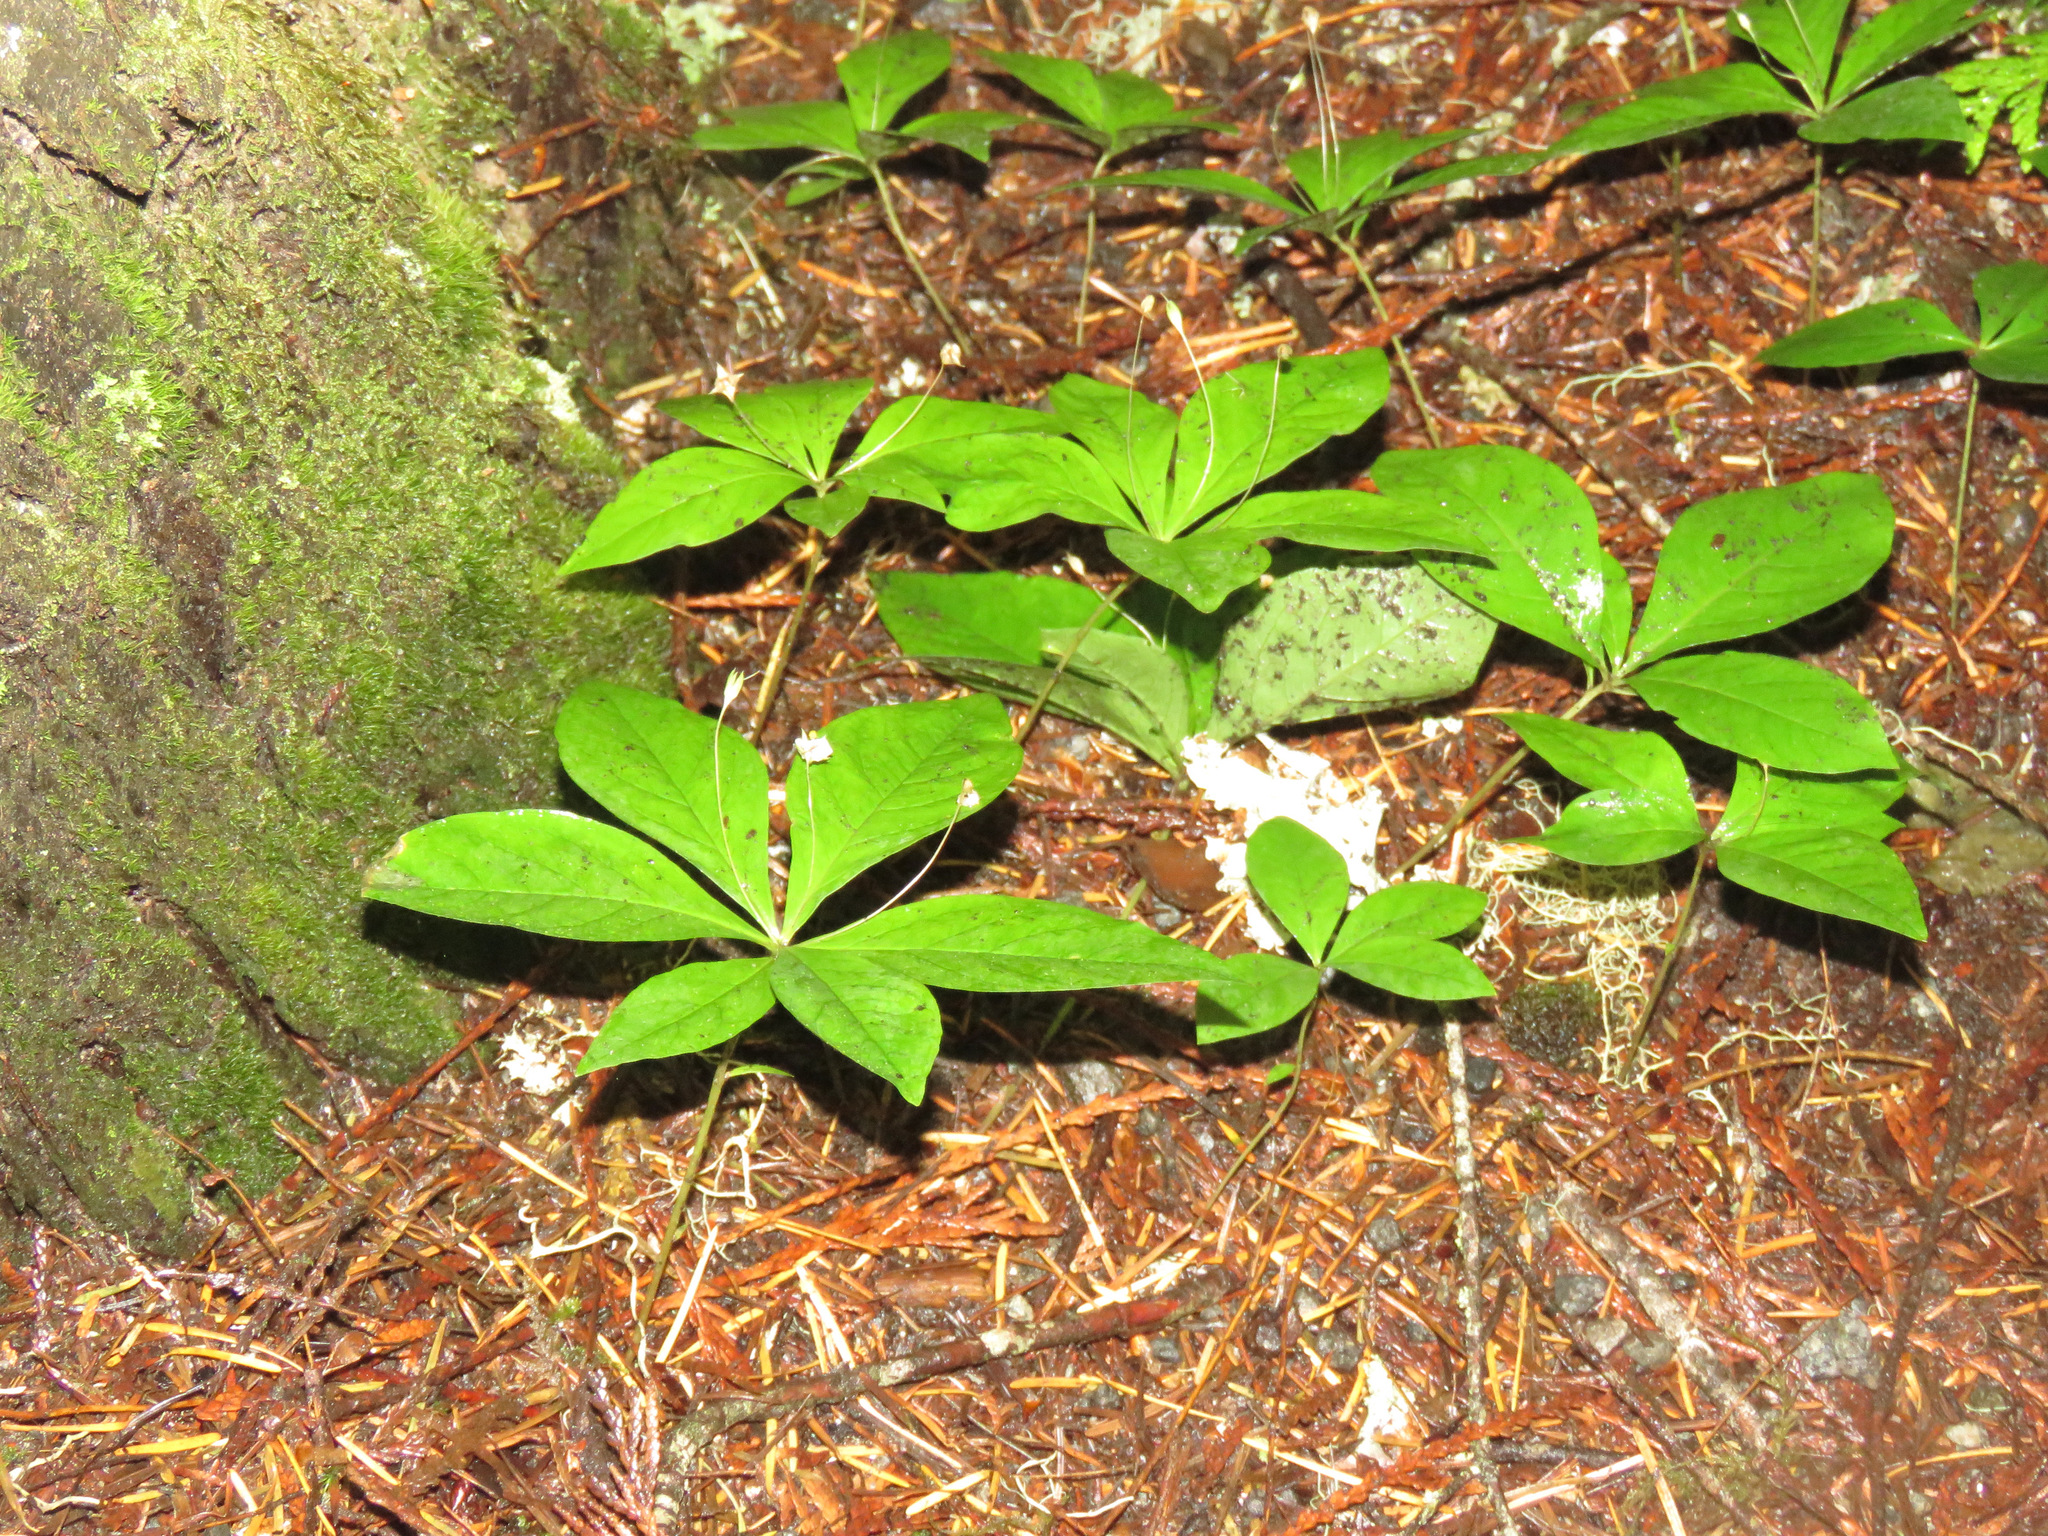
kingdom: Plantae
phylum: Tracheophyta
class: Magnoliopsida
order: Ericales
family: Primulaceae
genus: Lysimachia
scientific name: Lysimachia latifolia
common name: Pacific starflower
